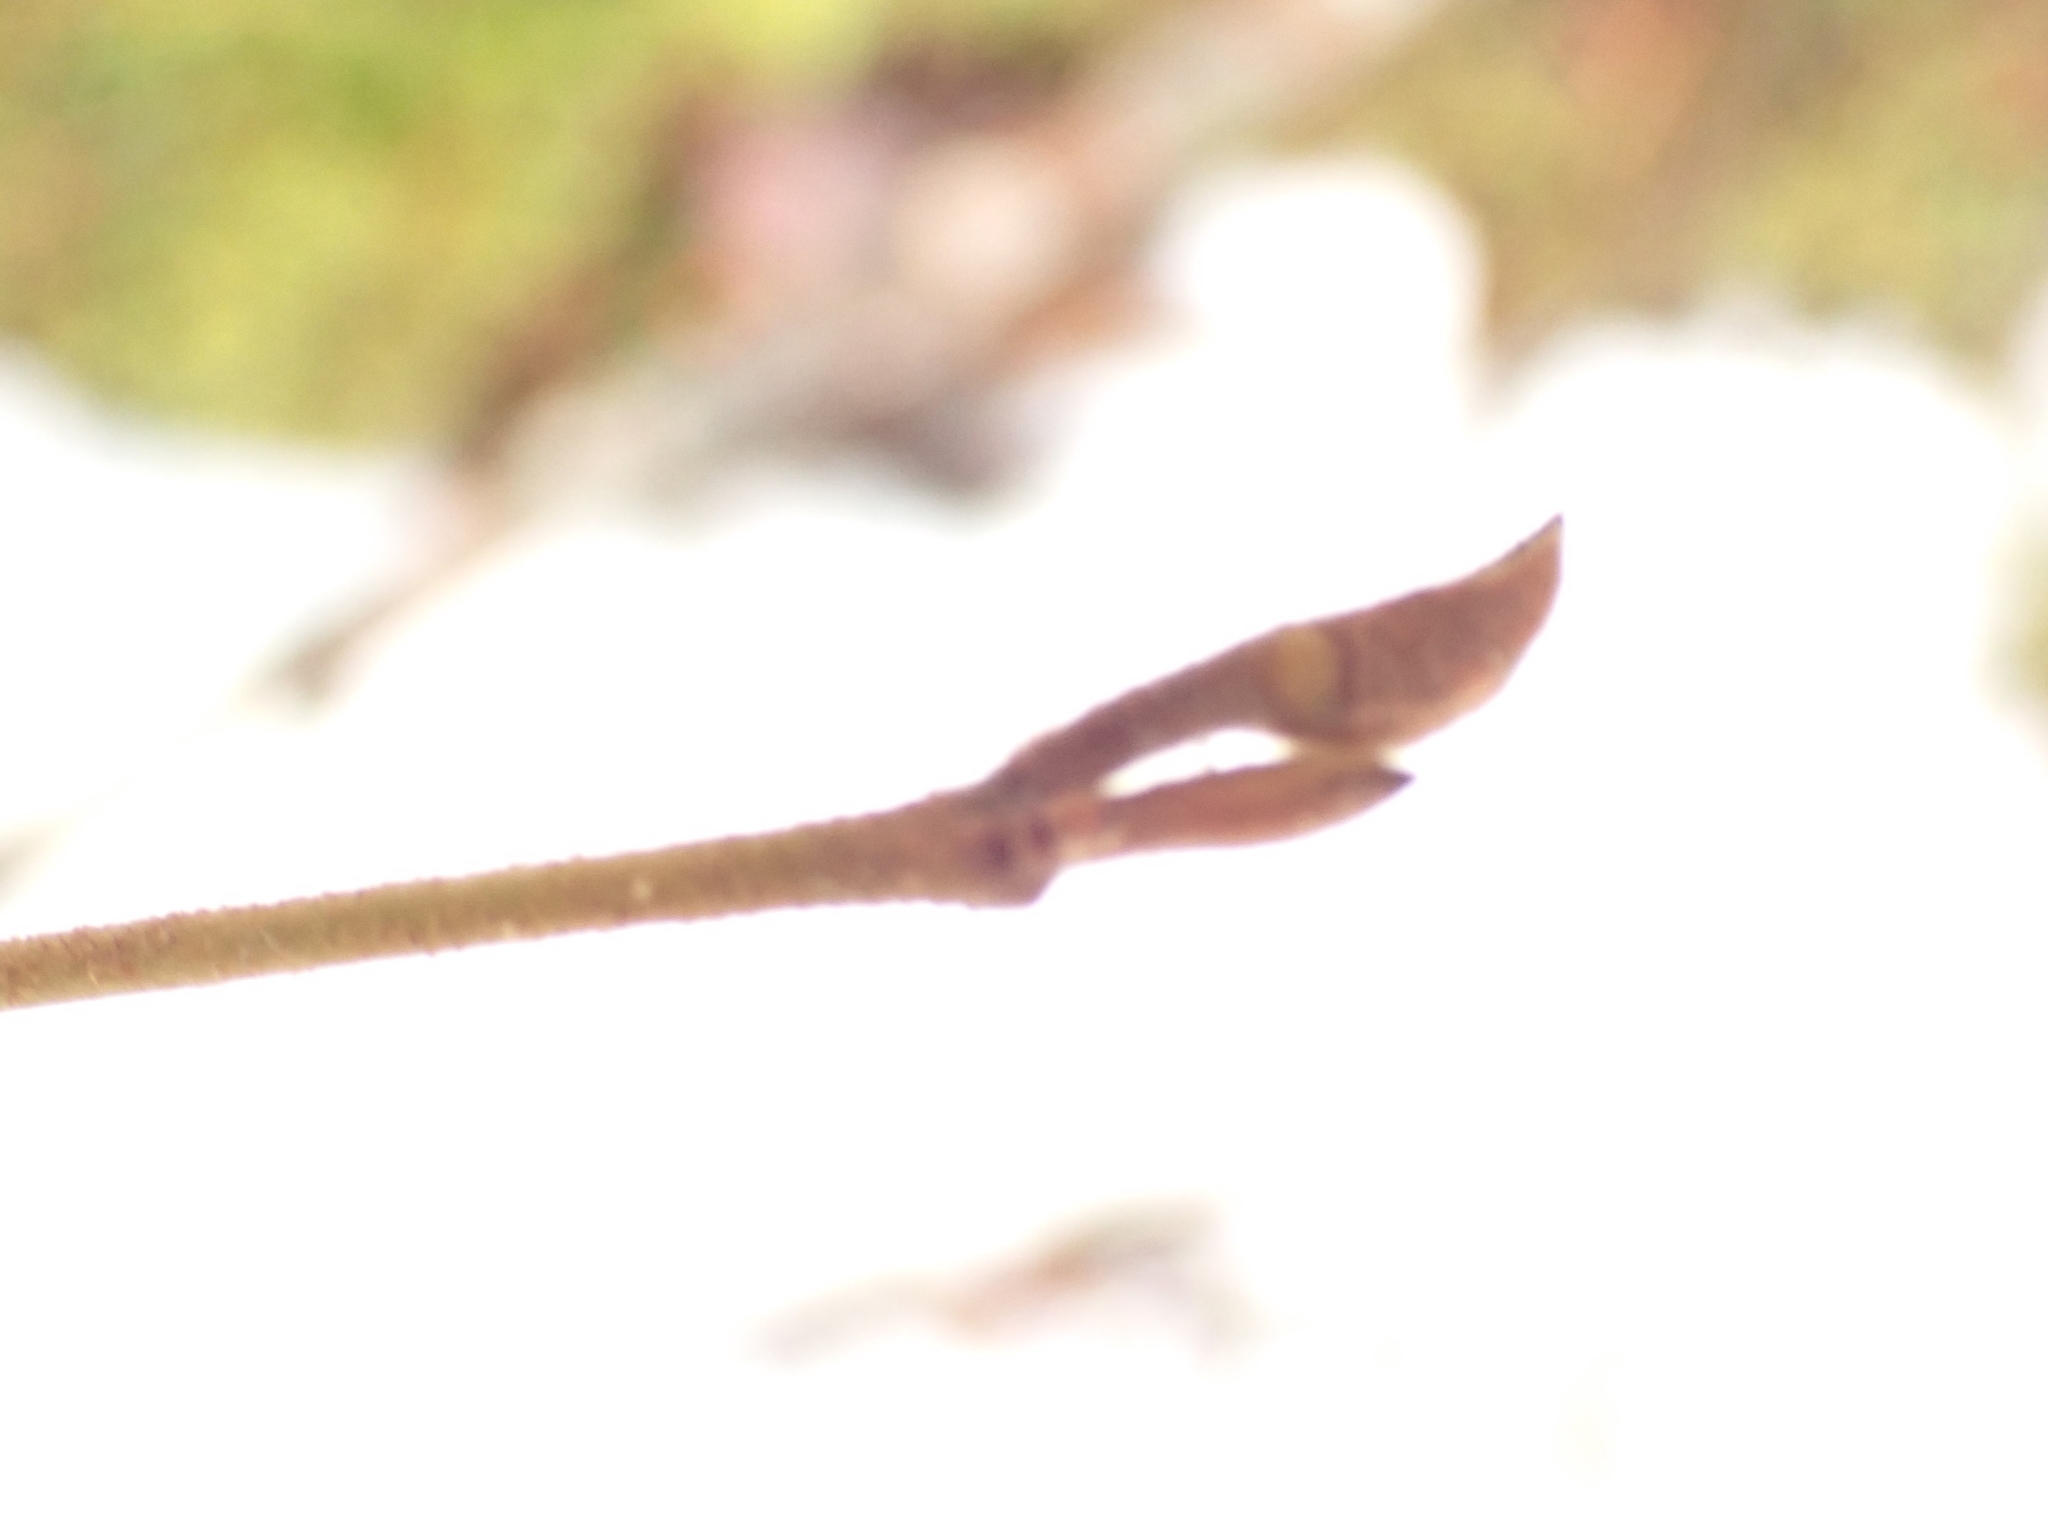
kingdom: Plantae
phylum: Tracheophyta
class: Magnoliopsida
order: Saxifragales
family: Hamamelidaceae
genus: Hamamelis
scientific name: Hamamelis virginiana
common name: Witch-hazel
